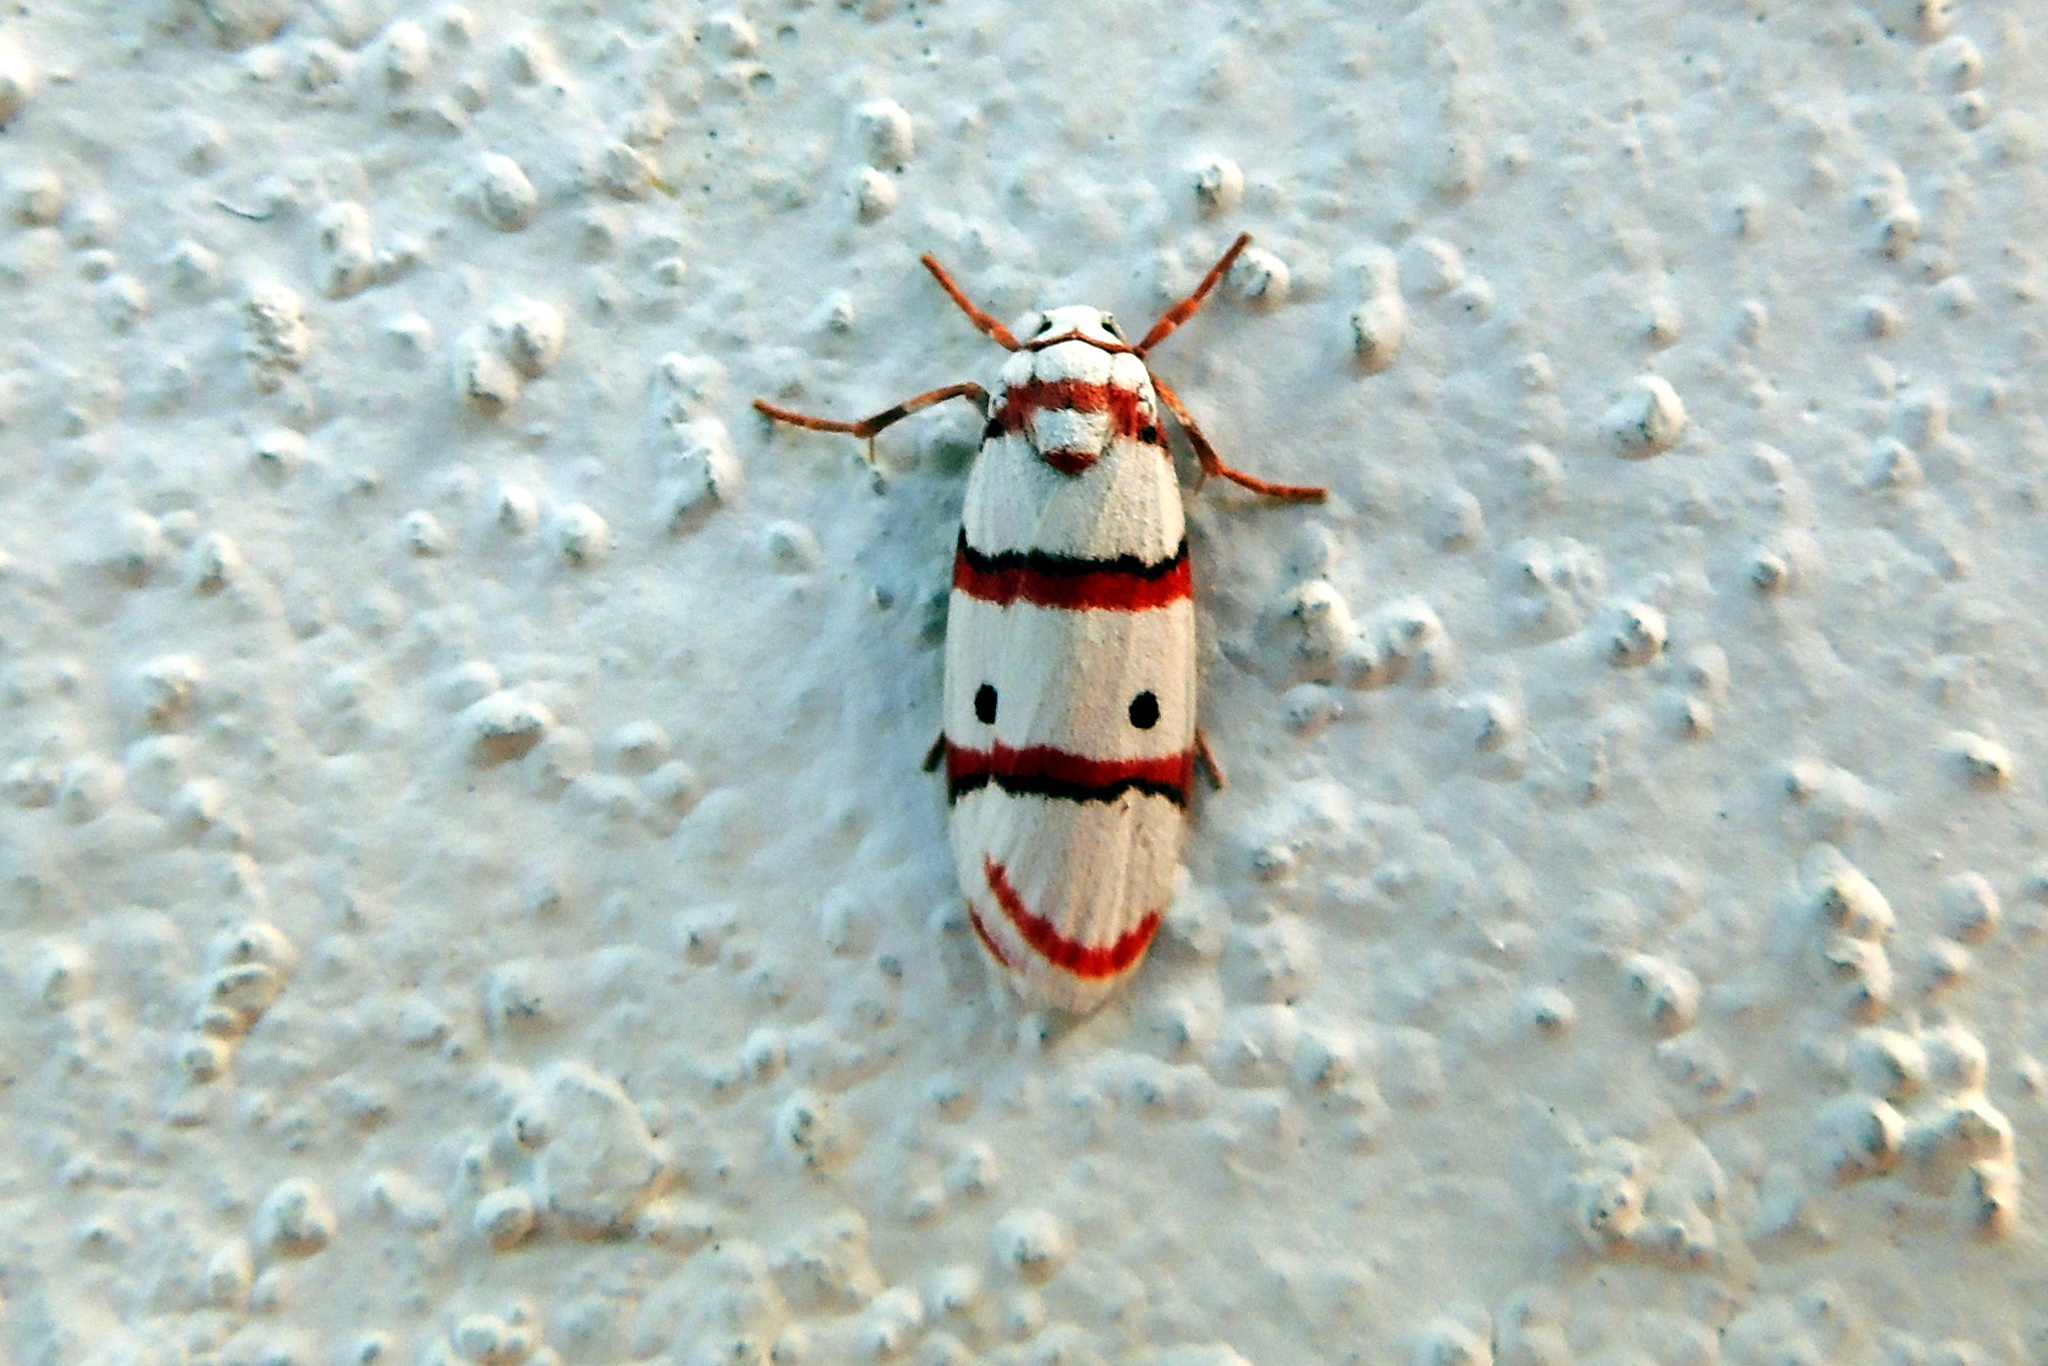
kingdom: Animalia
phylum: Arthropoda
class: Insecta
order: Lepidoptera
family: Erebidae
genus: Cyana
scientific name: Cyana peregrina
